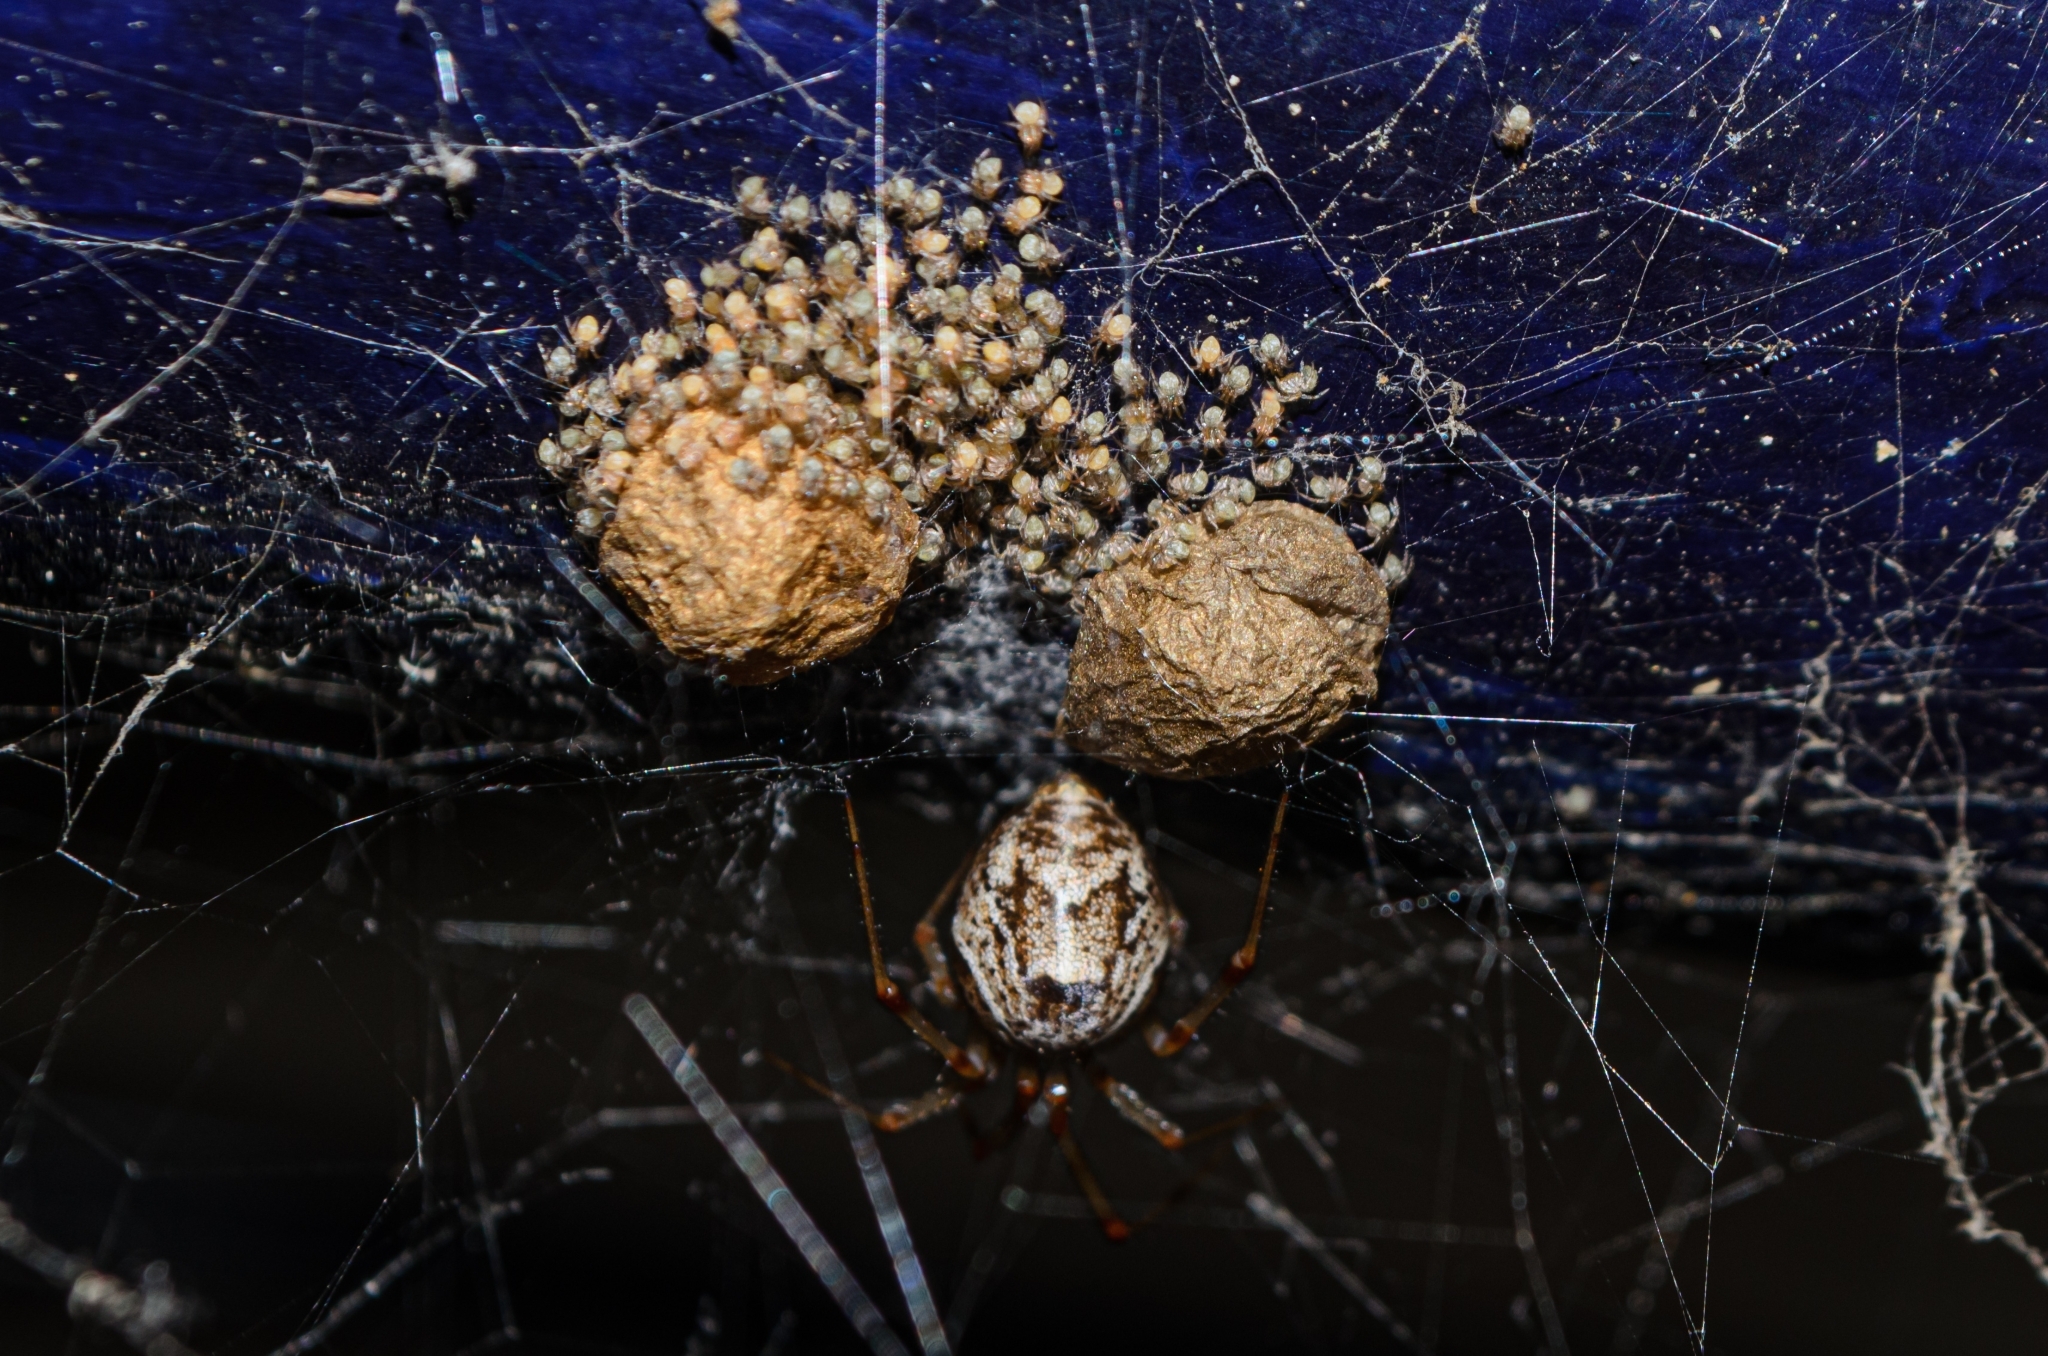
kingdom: Animalia
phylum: Arthropoda
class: Arachnida
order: Araneae
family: Theridiidae
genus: Parasteatoda
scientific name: Parasteatoda tepidariorum
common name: Common house spider
